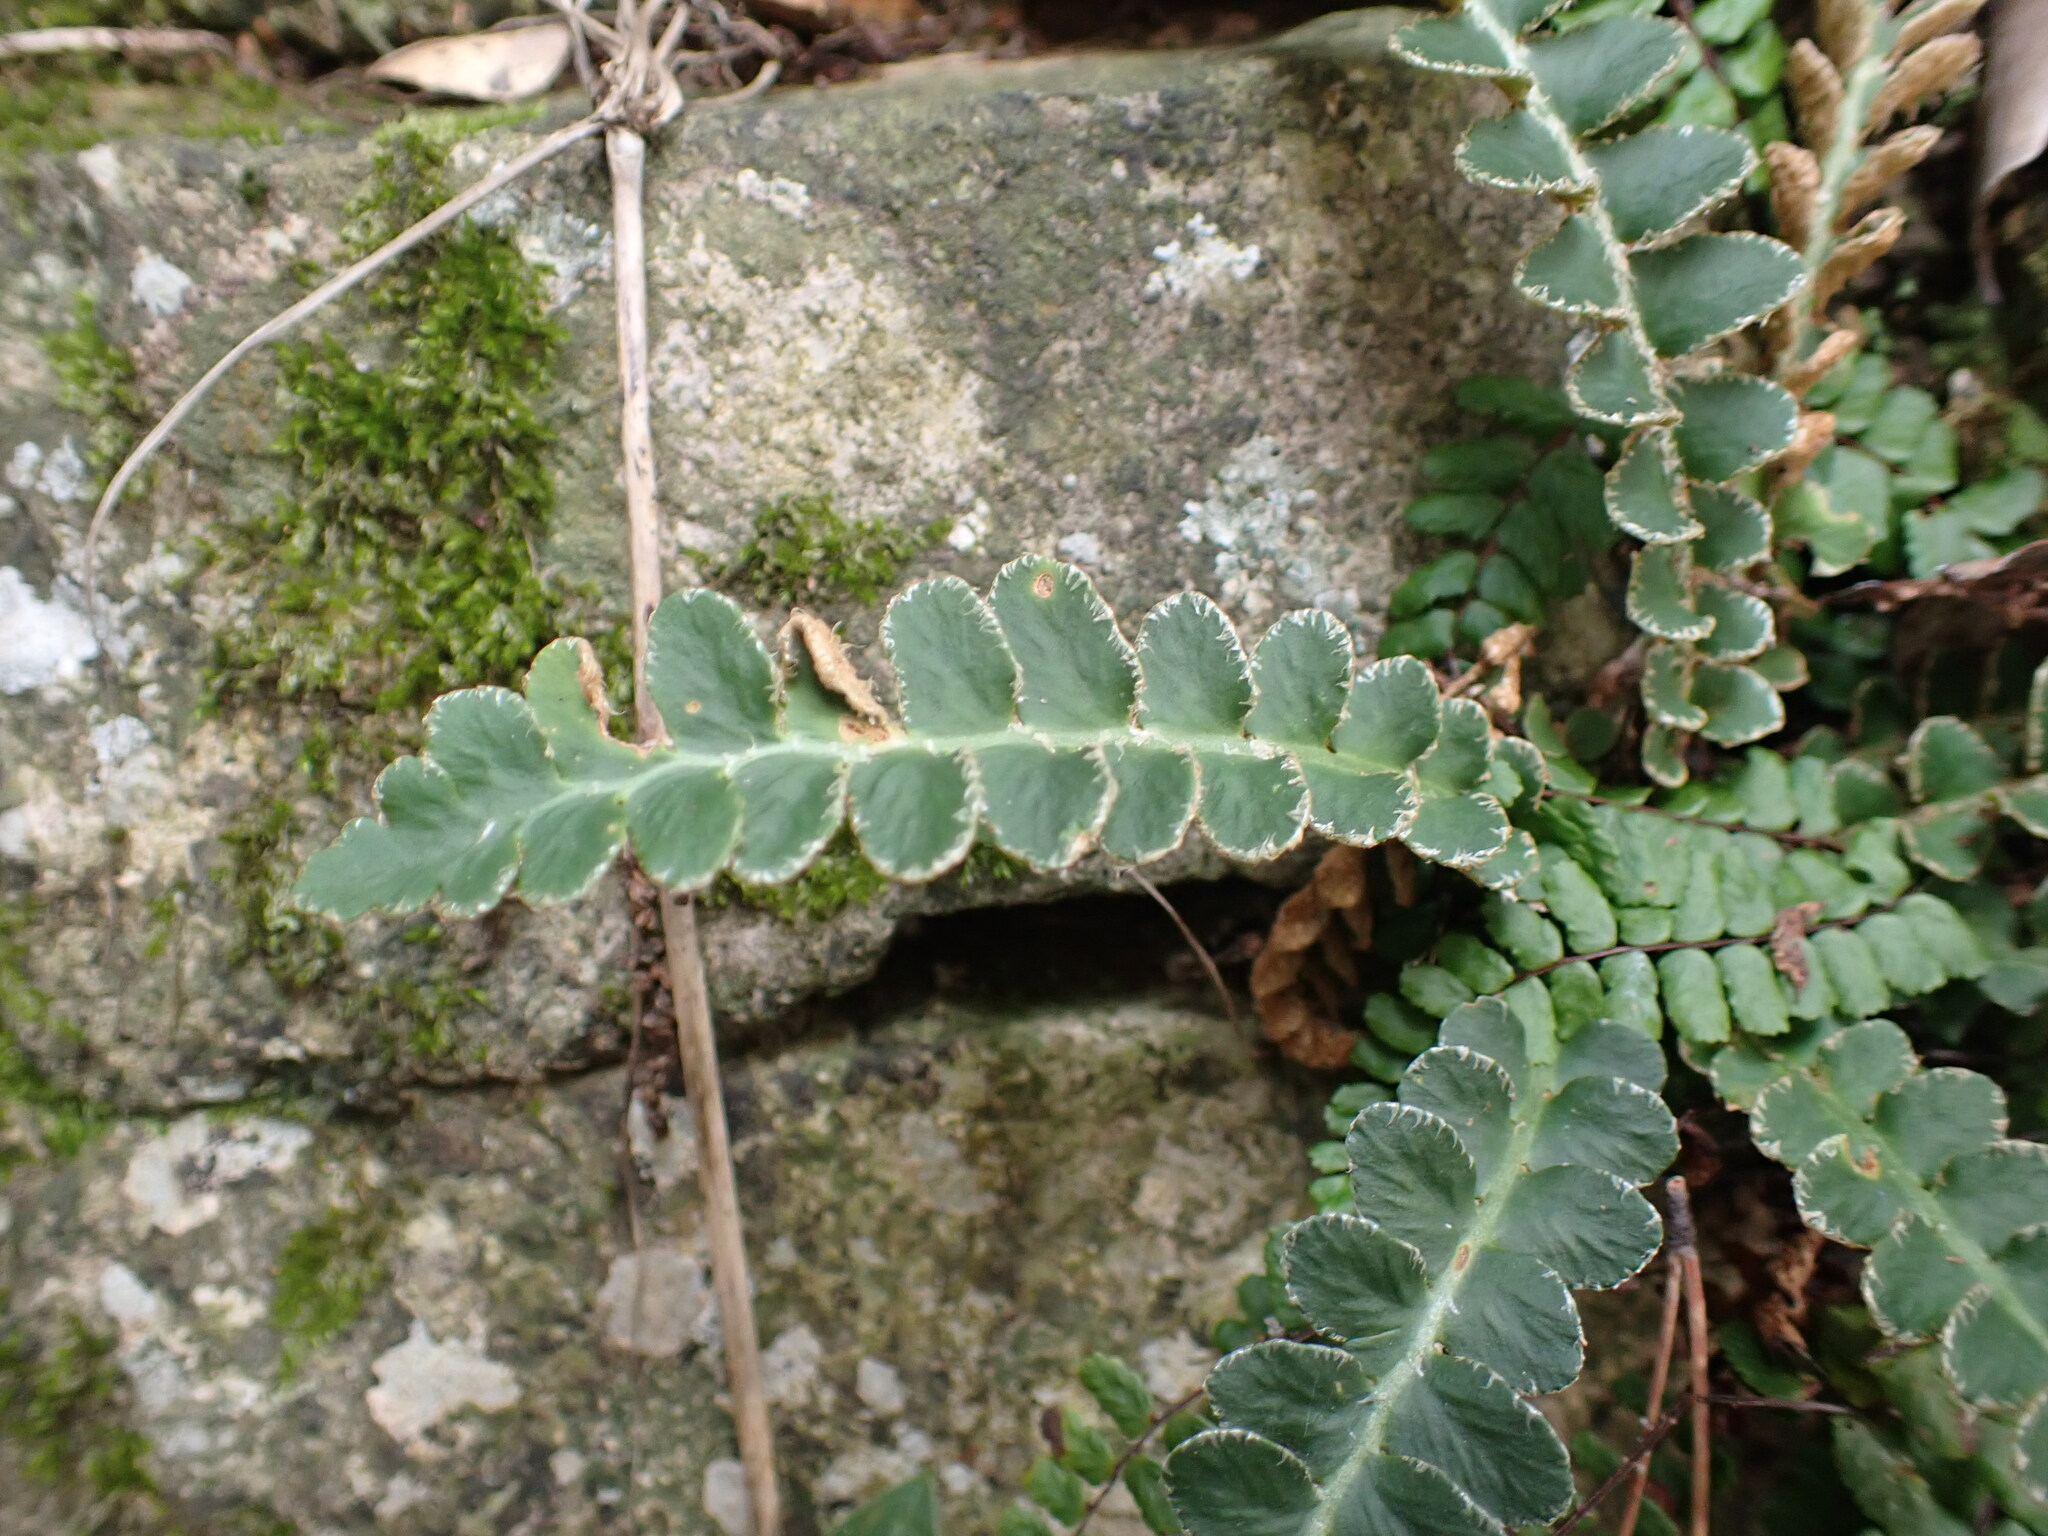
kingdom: Plantae
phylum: Tracheophyta
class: Polypodiopsida
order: Polypodiales
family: Aspleniaceae
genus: Asplenium
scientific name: Asplenium ceterach
